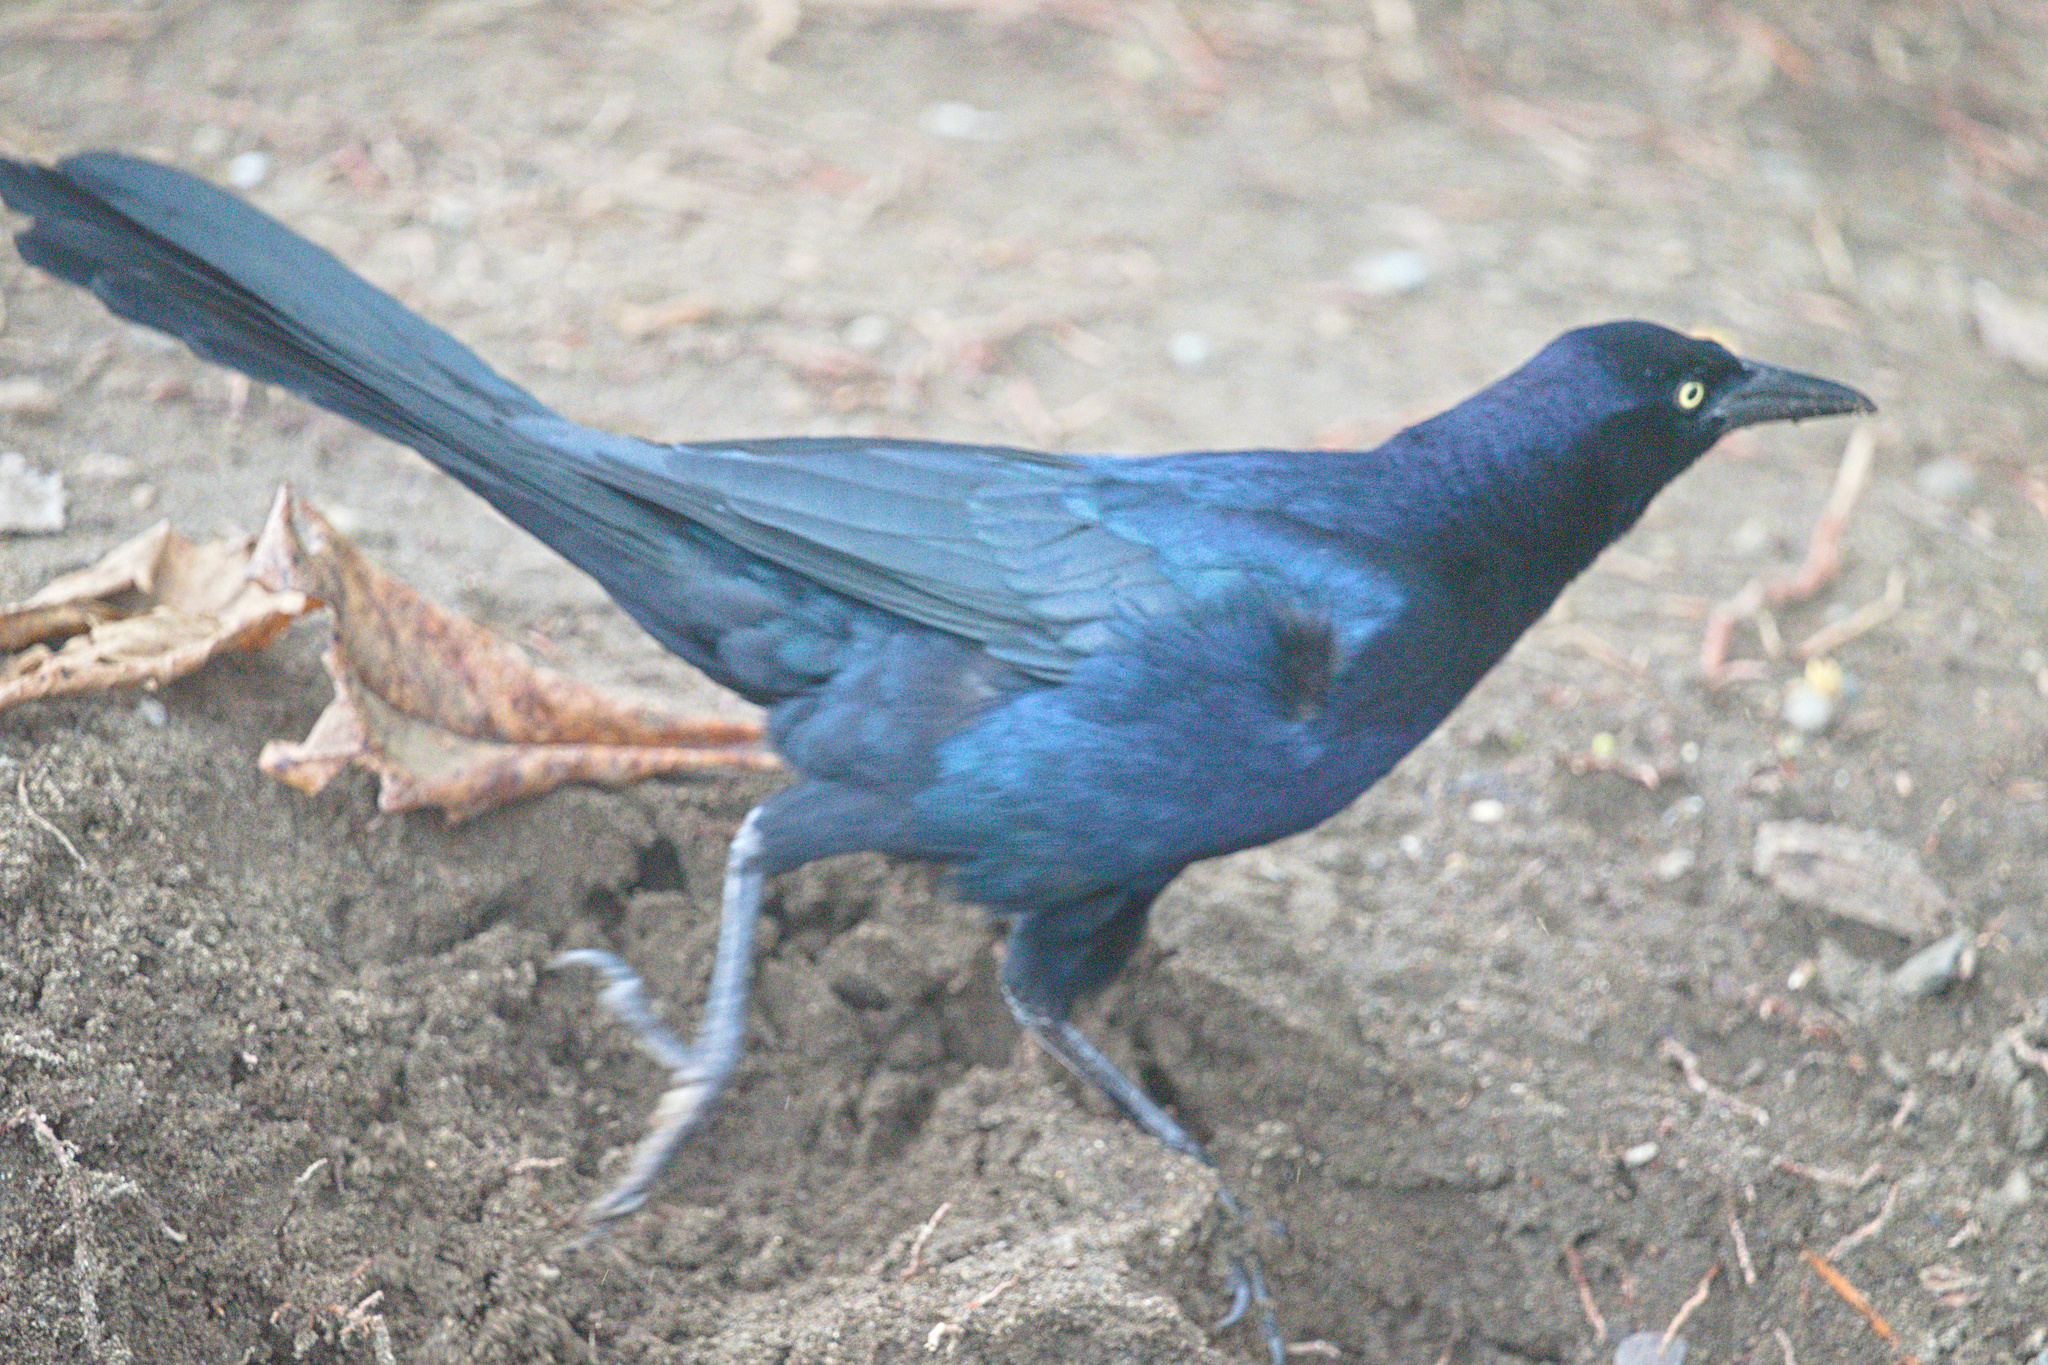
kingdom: Animalia
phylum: Chordata
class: Aves
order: Passeriformes
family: Icteridae
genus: Quiscalus
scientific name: Quiscalus mexicanus
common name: Great-tailed grackle
